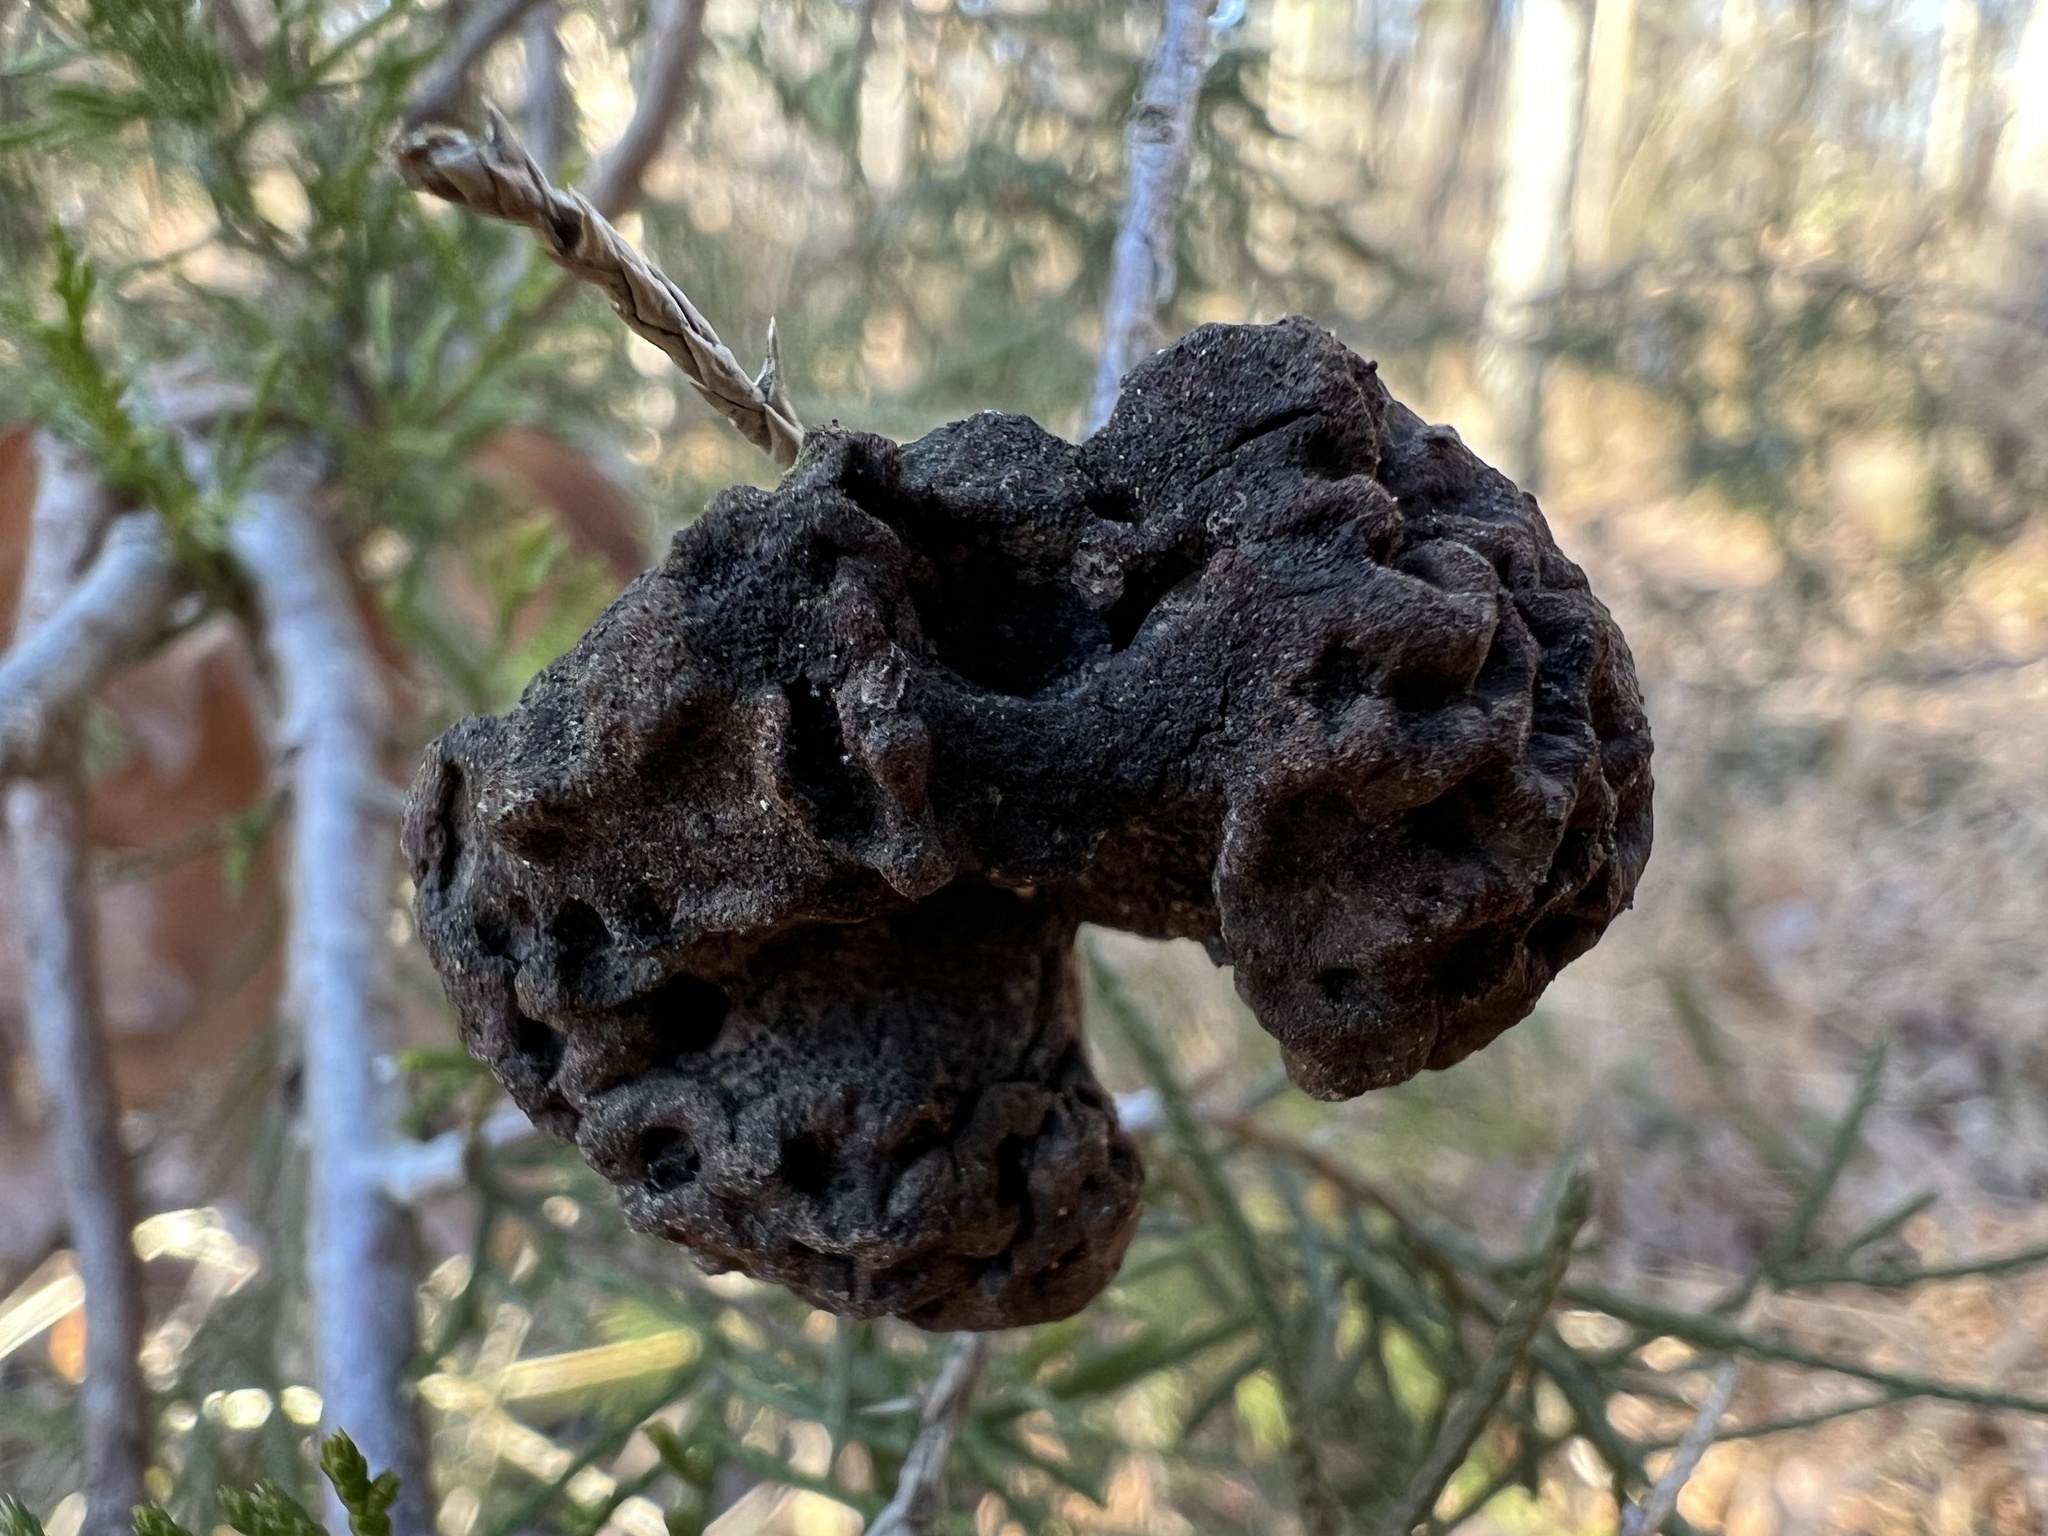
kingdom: Fungi
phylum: Basidiomycota
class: Pucciniomycetes
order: Pucciniales
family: Gymnosporangiaceae
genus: Gymnosporangium
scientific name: Gymnosporangium juniperi-virginianae
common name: Juniper-apple rust
